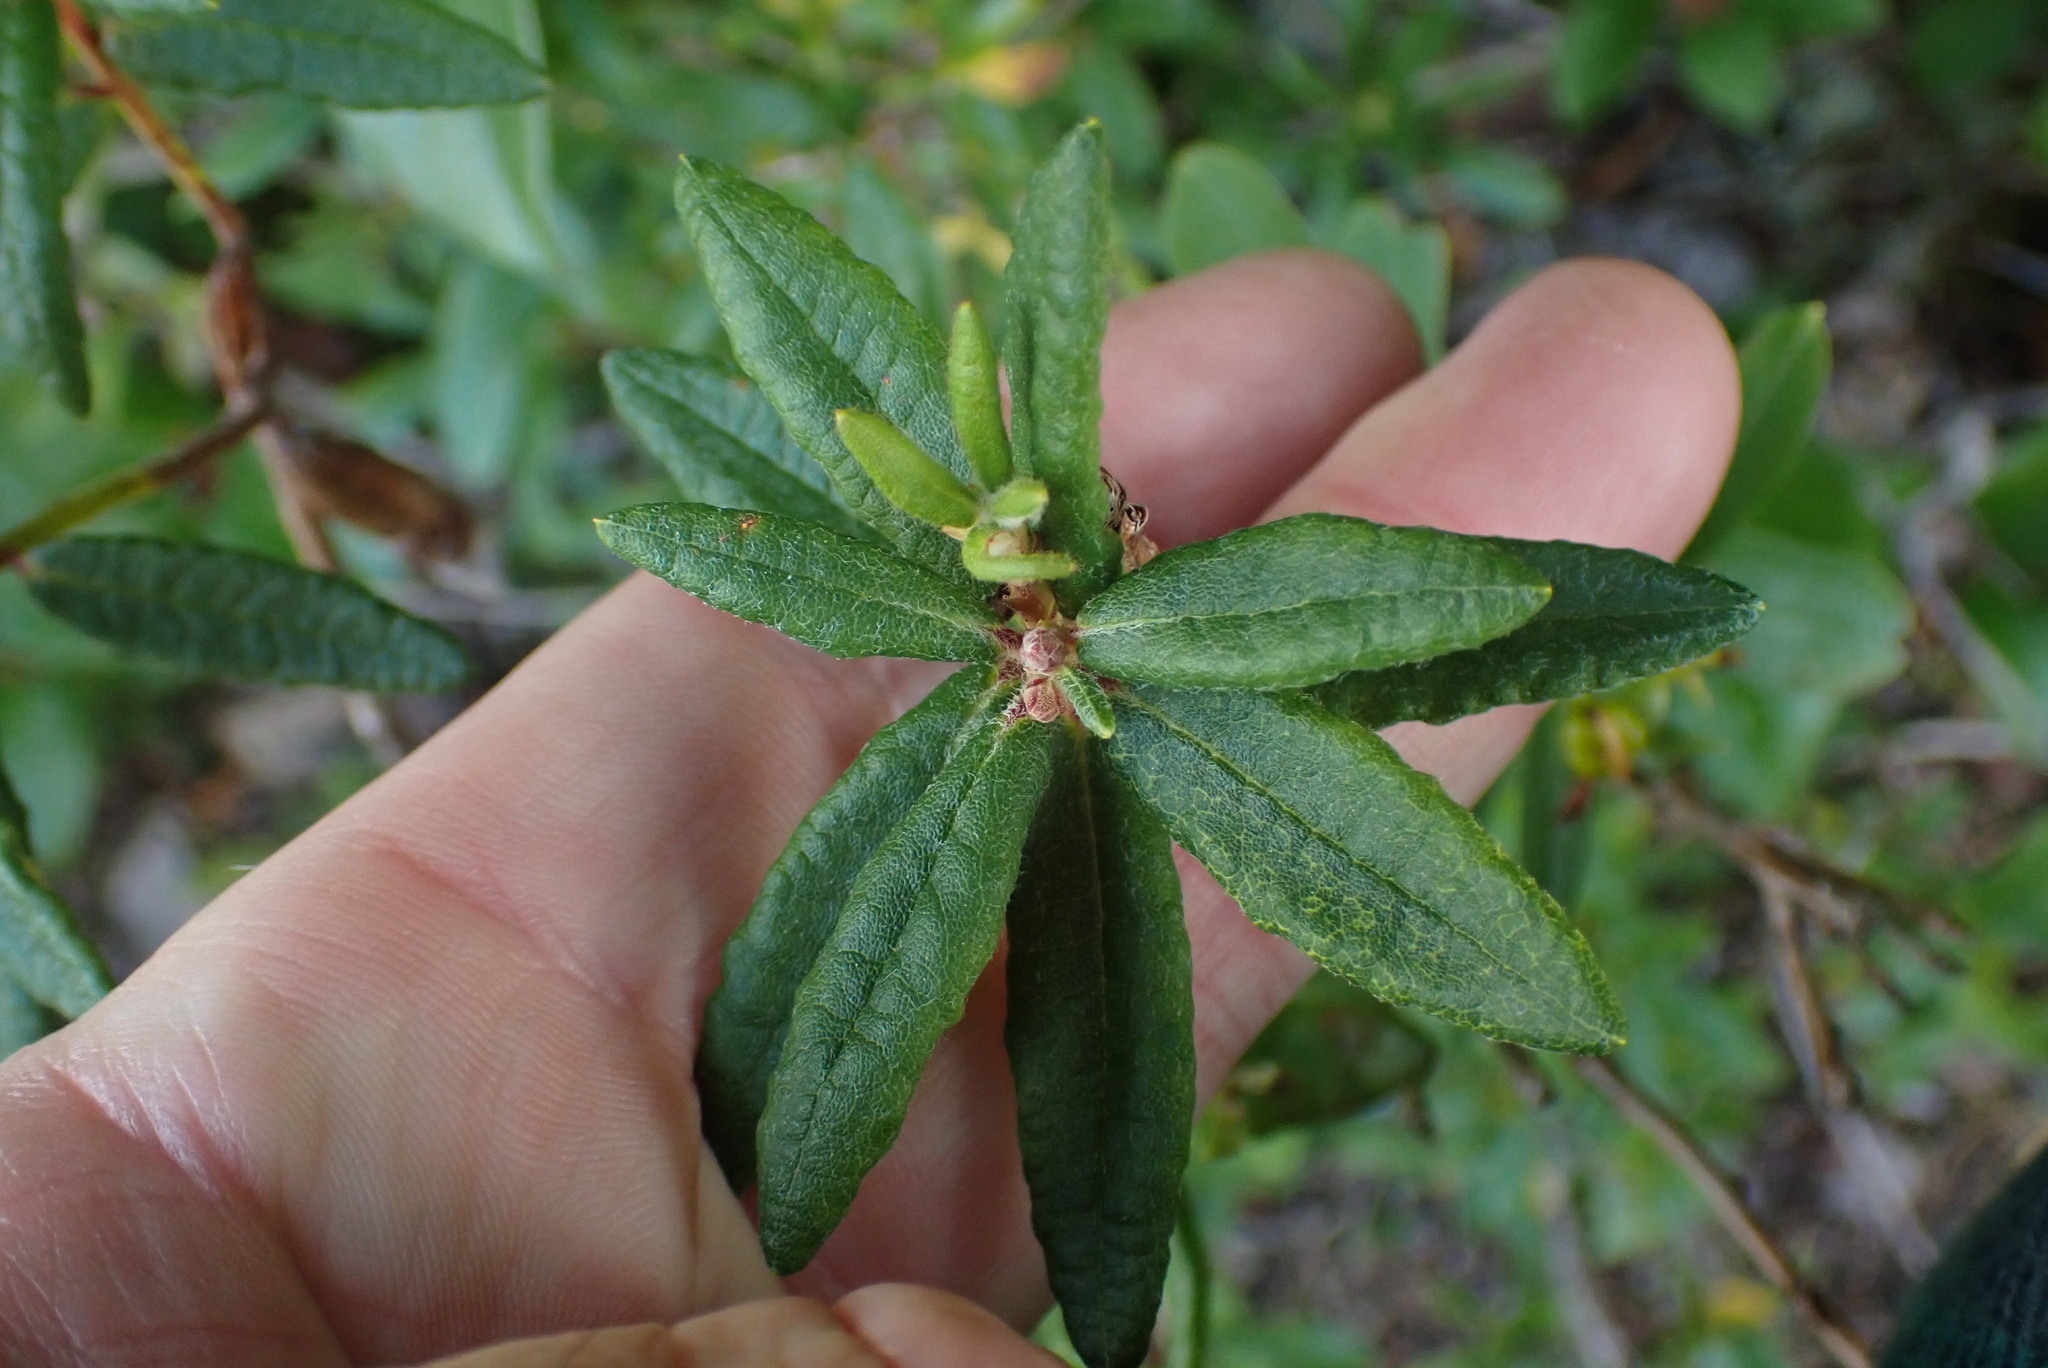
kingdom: Plantae
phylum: Tracheophyta
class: Magnoliopsida
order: Ericales
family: Ericaceae
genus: Rhododendron
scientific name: Rhododendron groenlandicum
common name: Bog labrador tea
